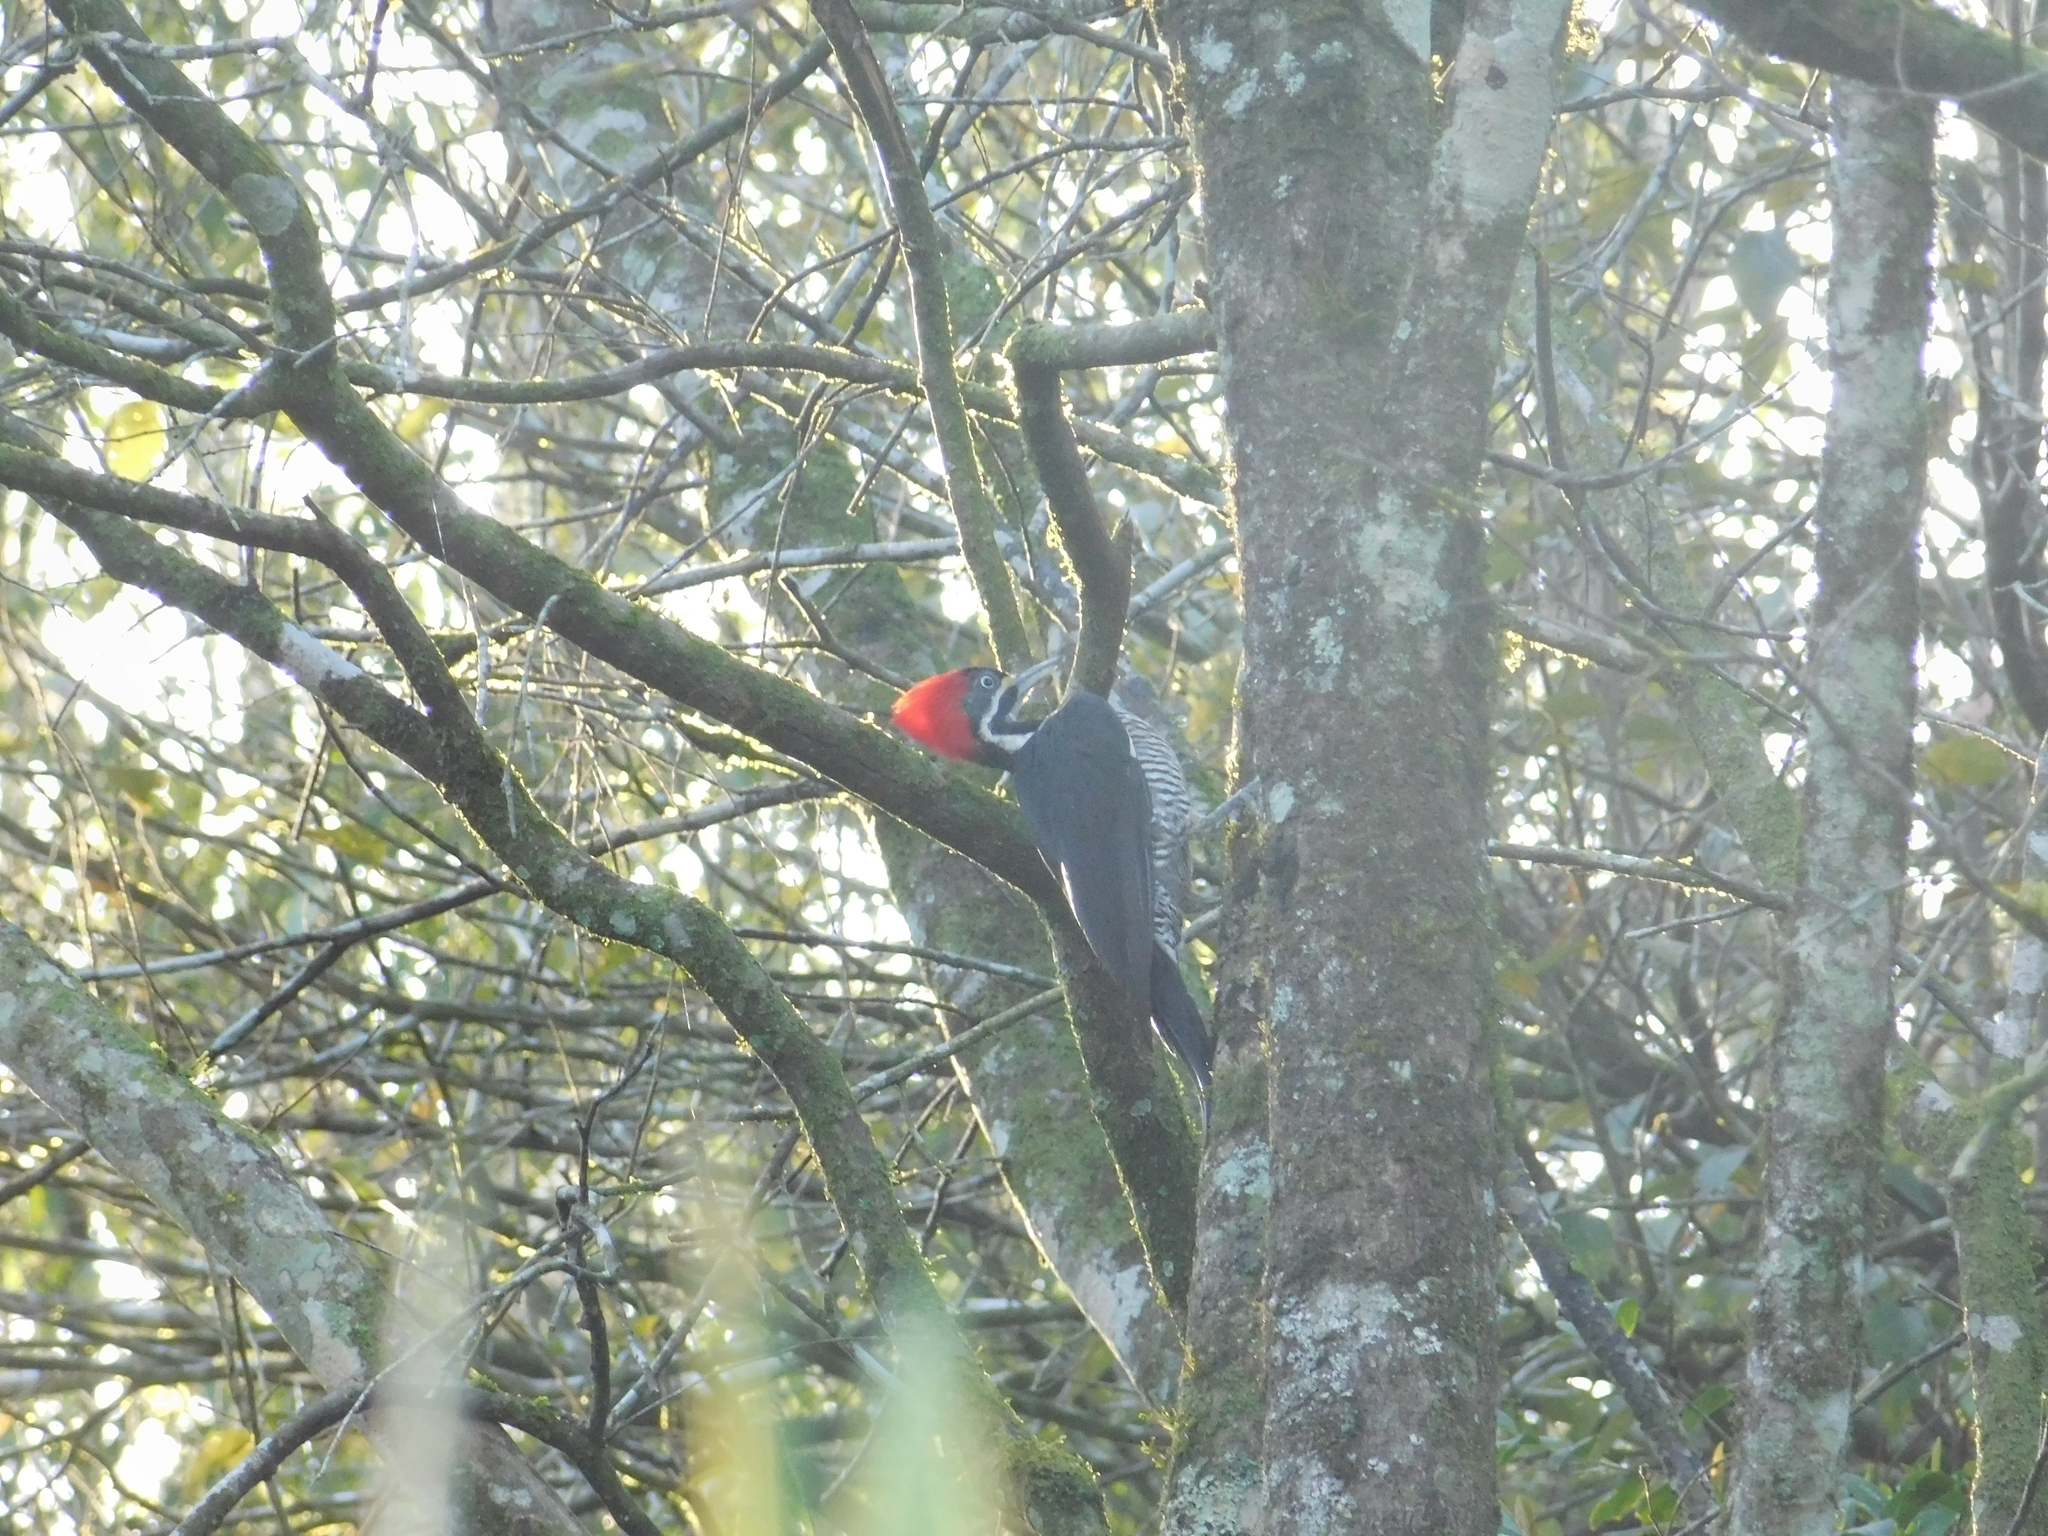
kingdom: Animalia
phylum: Chordata
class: Aves
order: Piciformes
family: Picidae
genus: Dryocopus
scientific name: Dryocopus lineatus
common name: Lineated woodpecker
